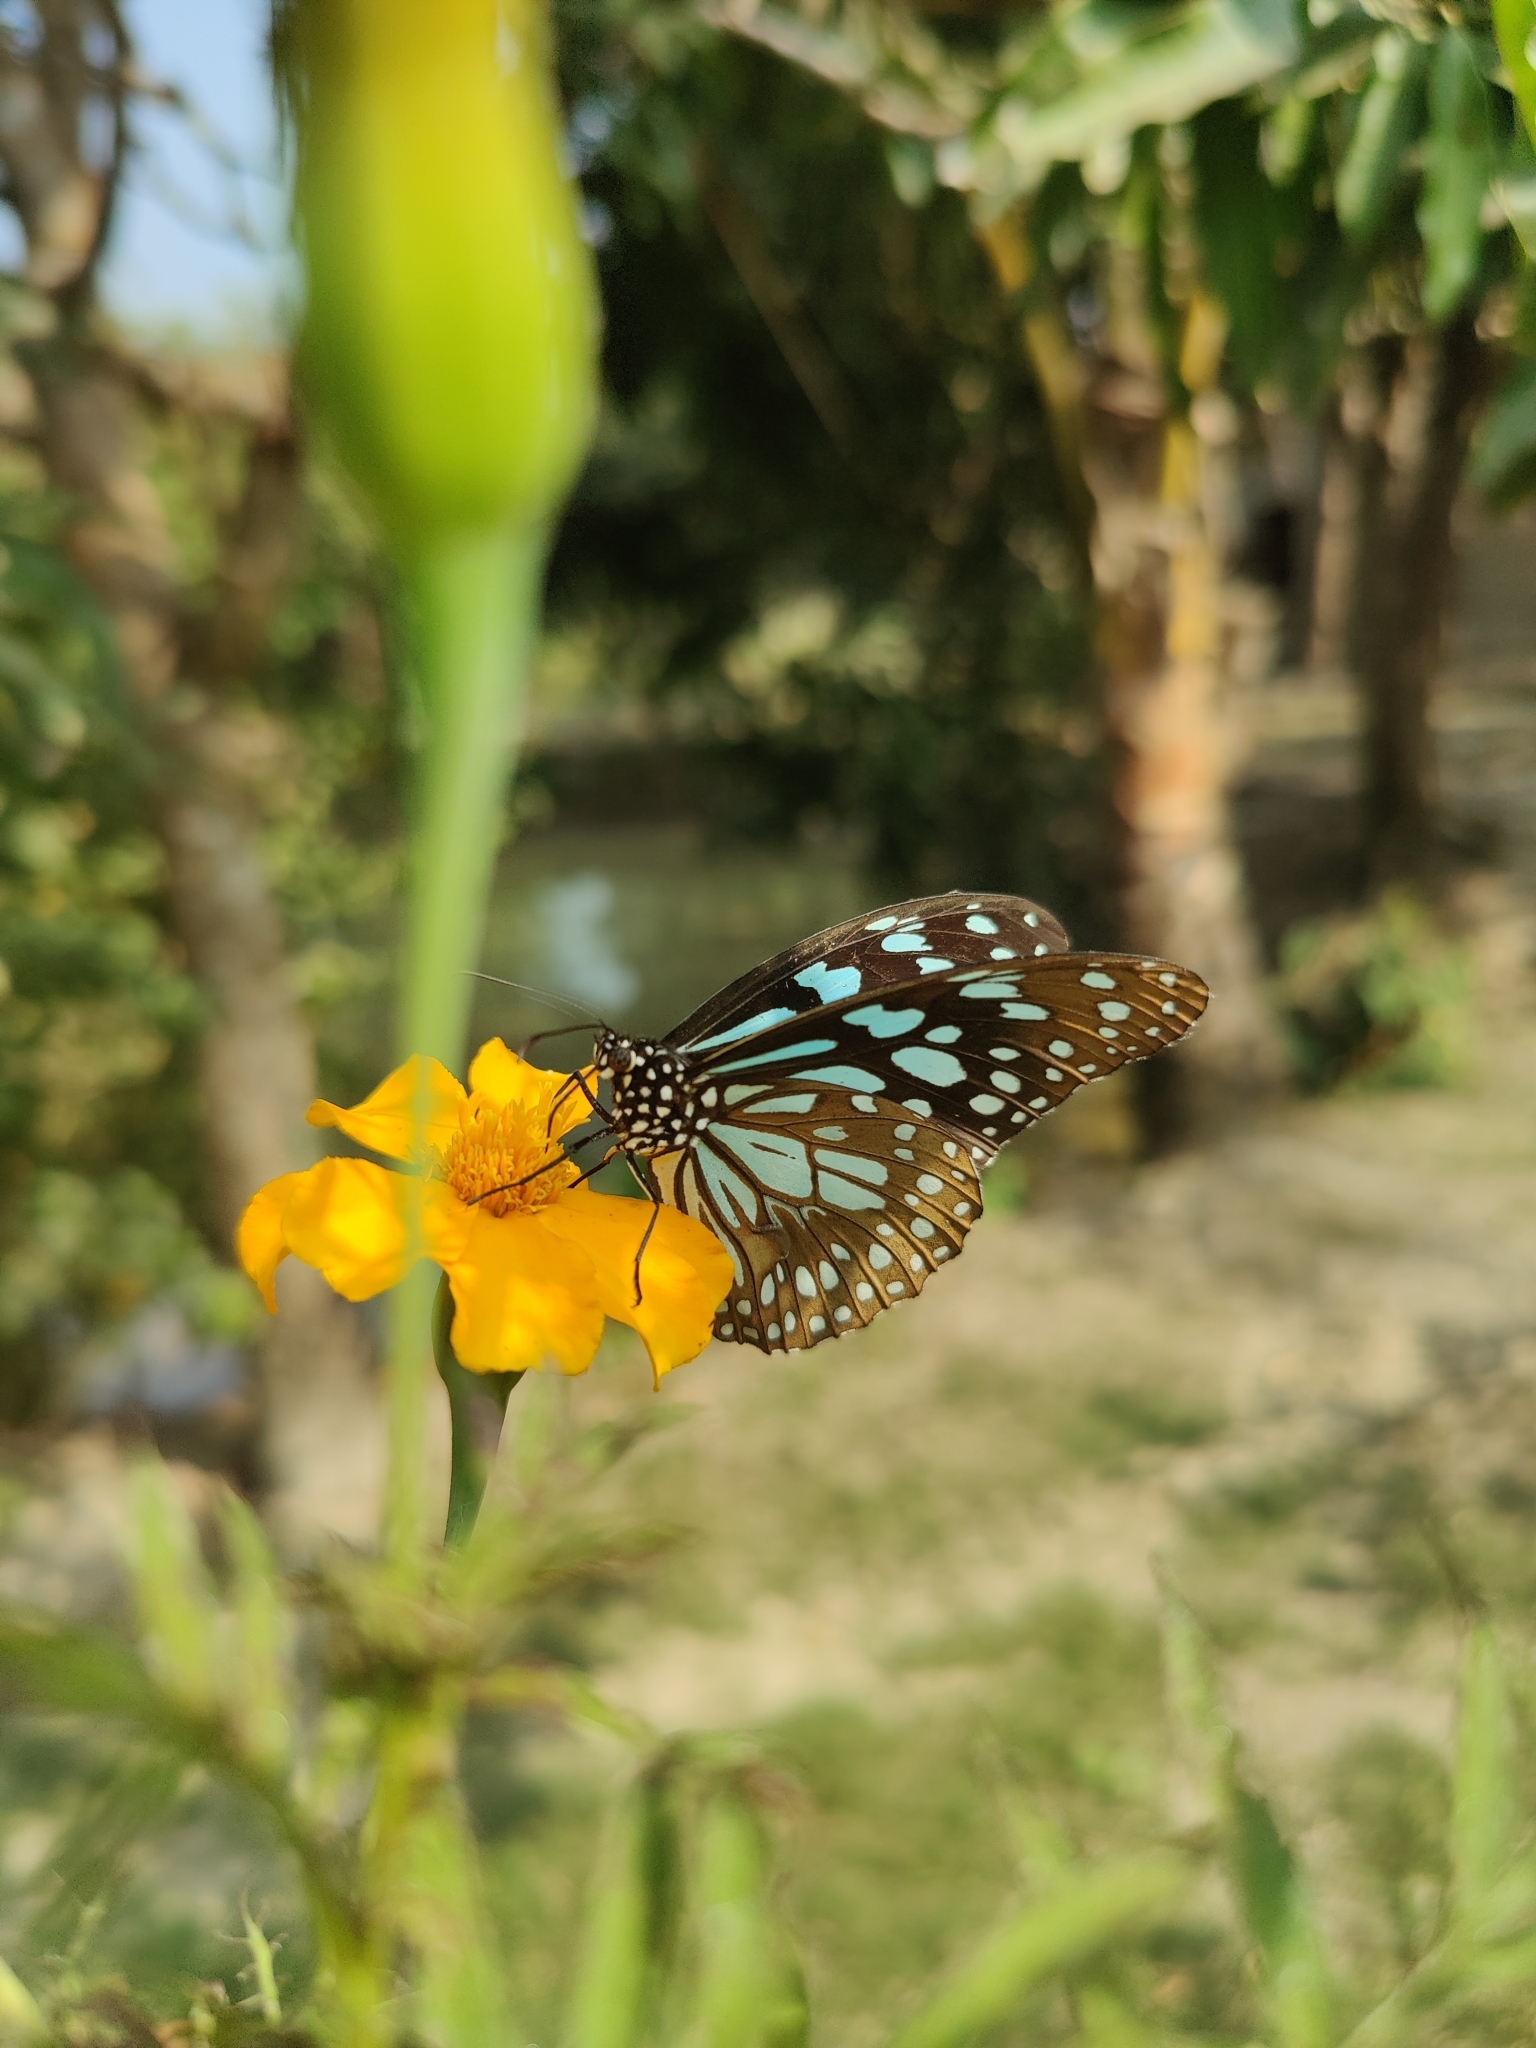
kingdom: Animalia
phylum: Arthropoda
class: Insecta
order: Lepidoptera
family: Nymphalidae
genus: Tirumala
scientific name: Tirumala limniace
